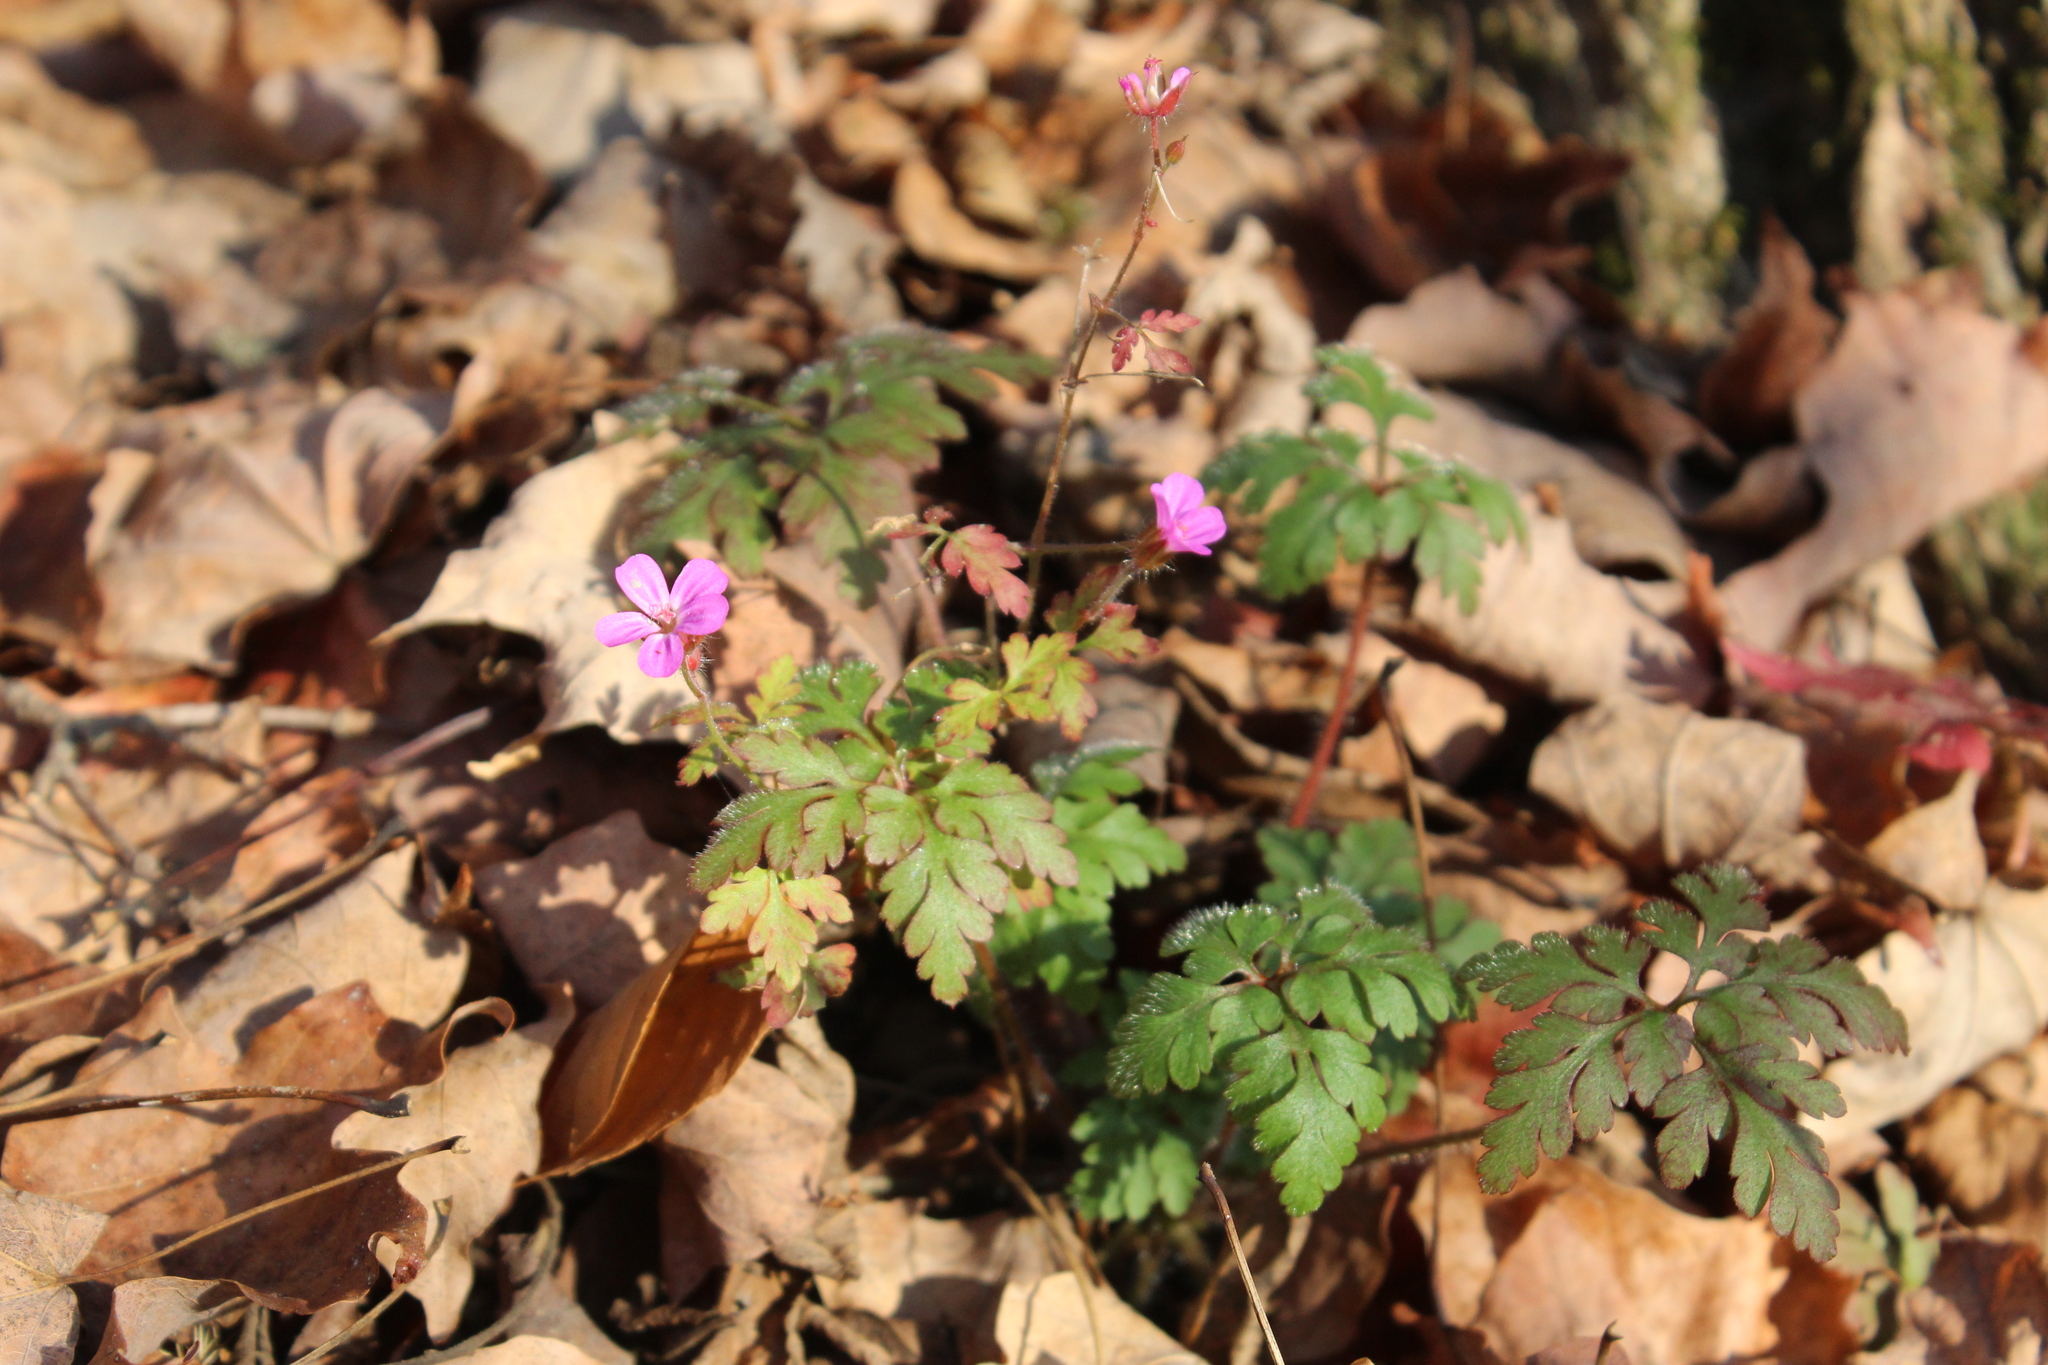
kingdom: Plantae
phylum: Tracheophyta
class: Magnoliopsida
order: Geraniales
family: Geraniaceae
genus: Geranium
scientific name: Geranium robertianum
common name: Herb-robert
